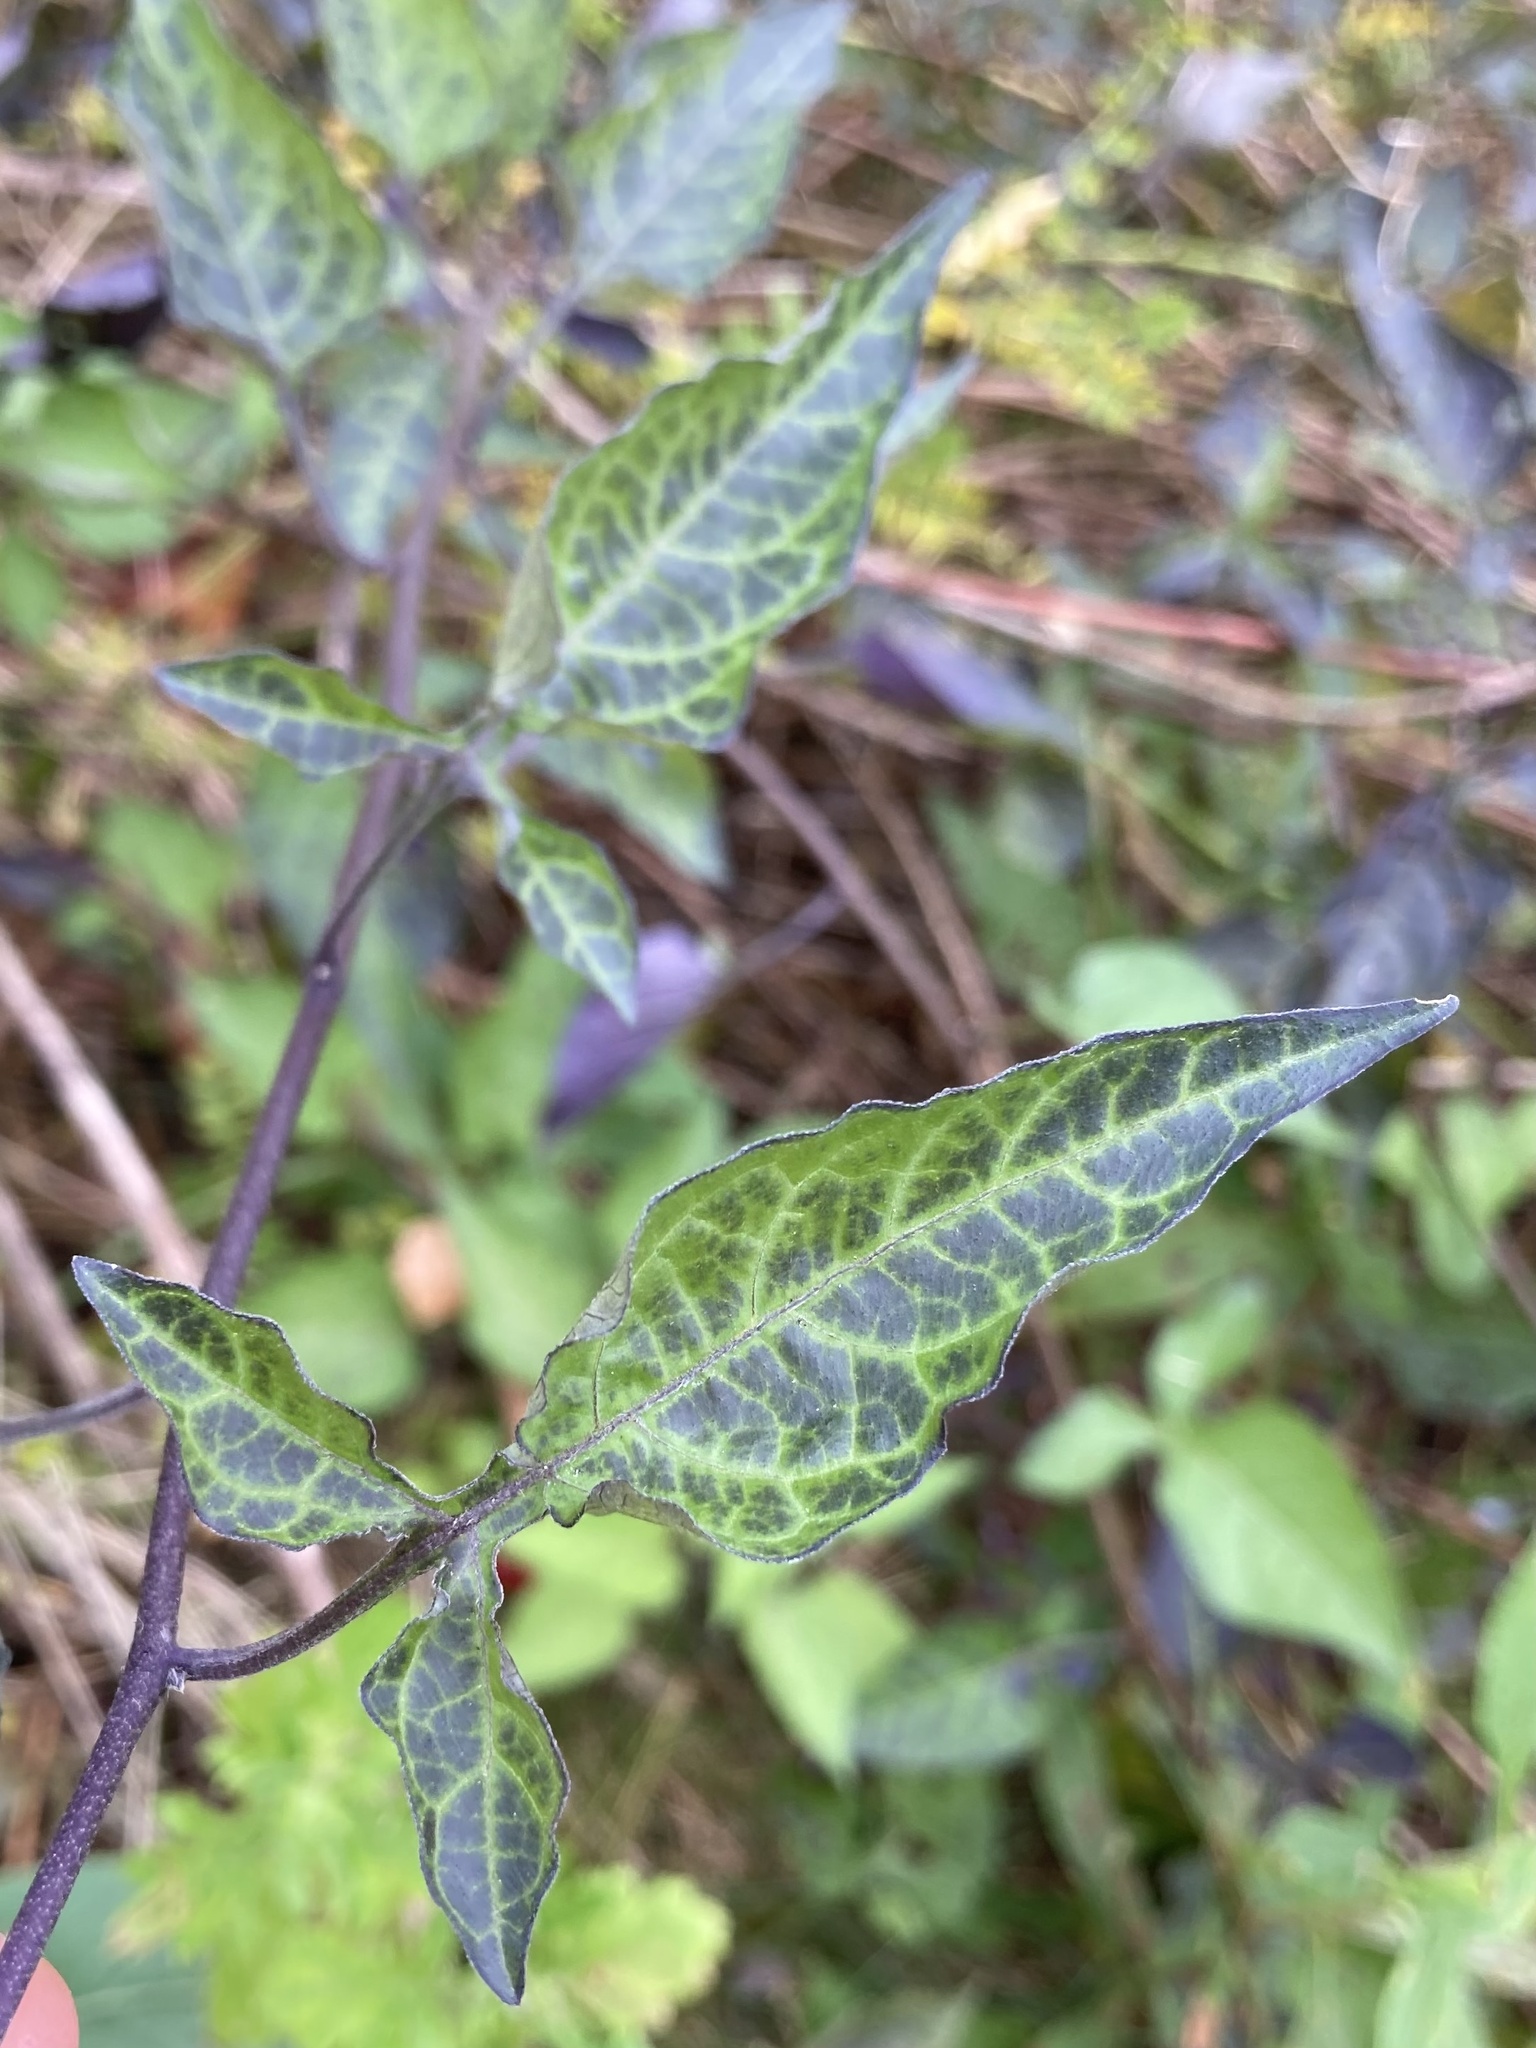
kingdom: Plantae
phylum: Tracheophyta
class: Magnoliopsida
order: Solanales
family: Solanaceae
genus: Solanum
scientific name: Solanum dulcamara
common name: Climbing nightshade
